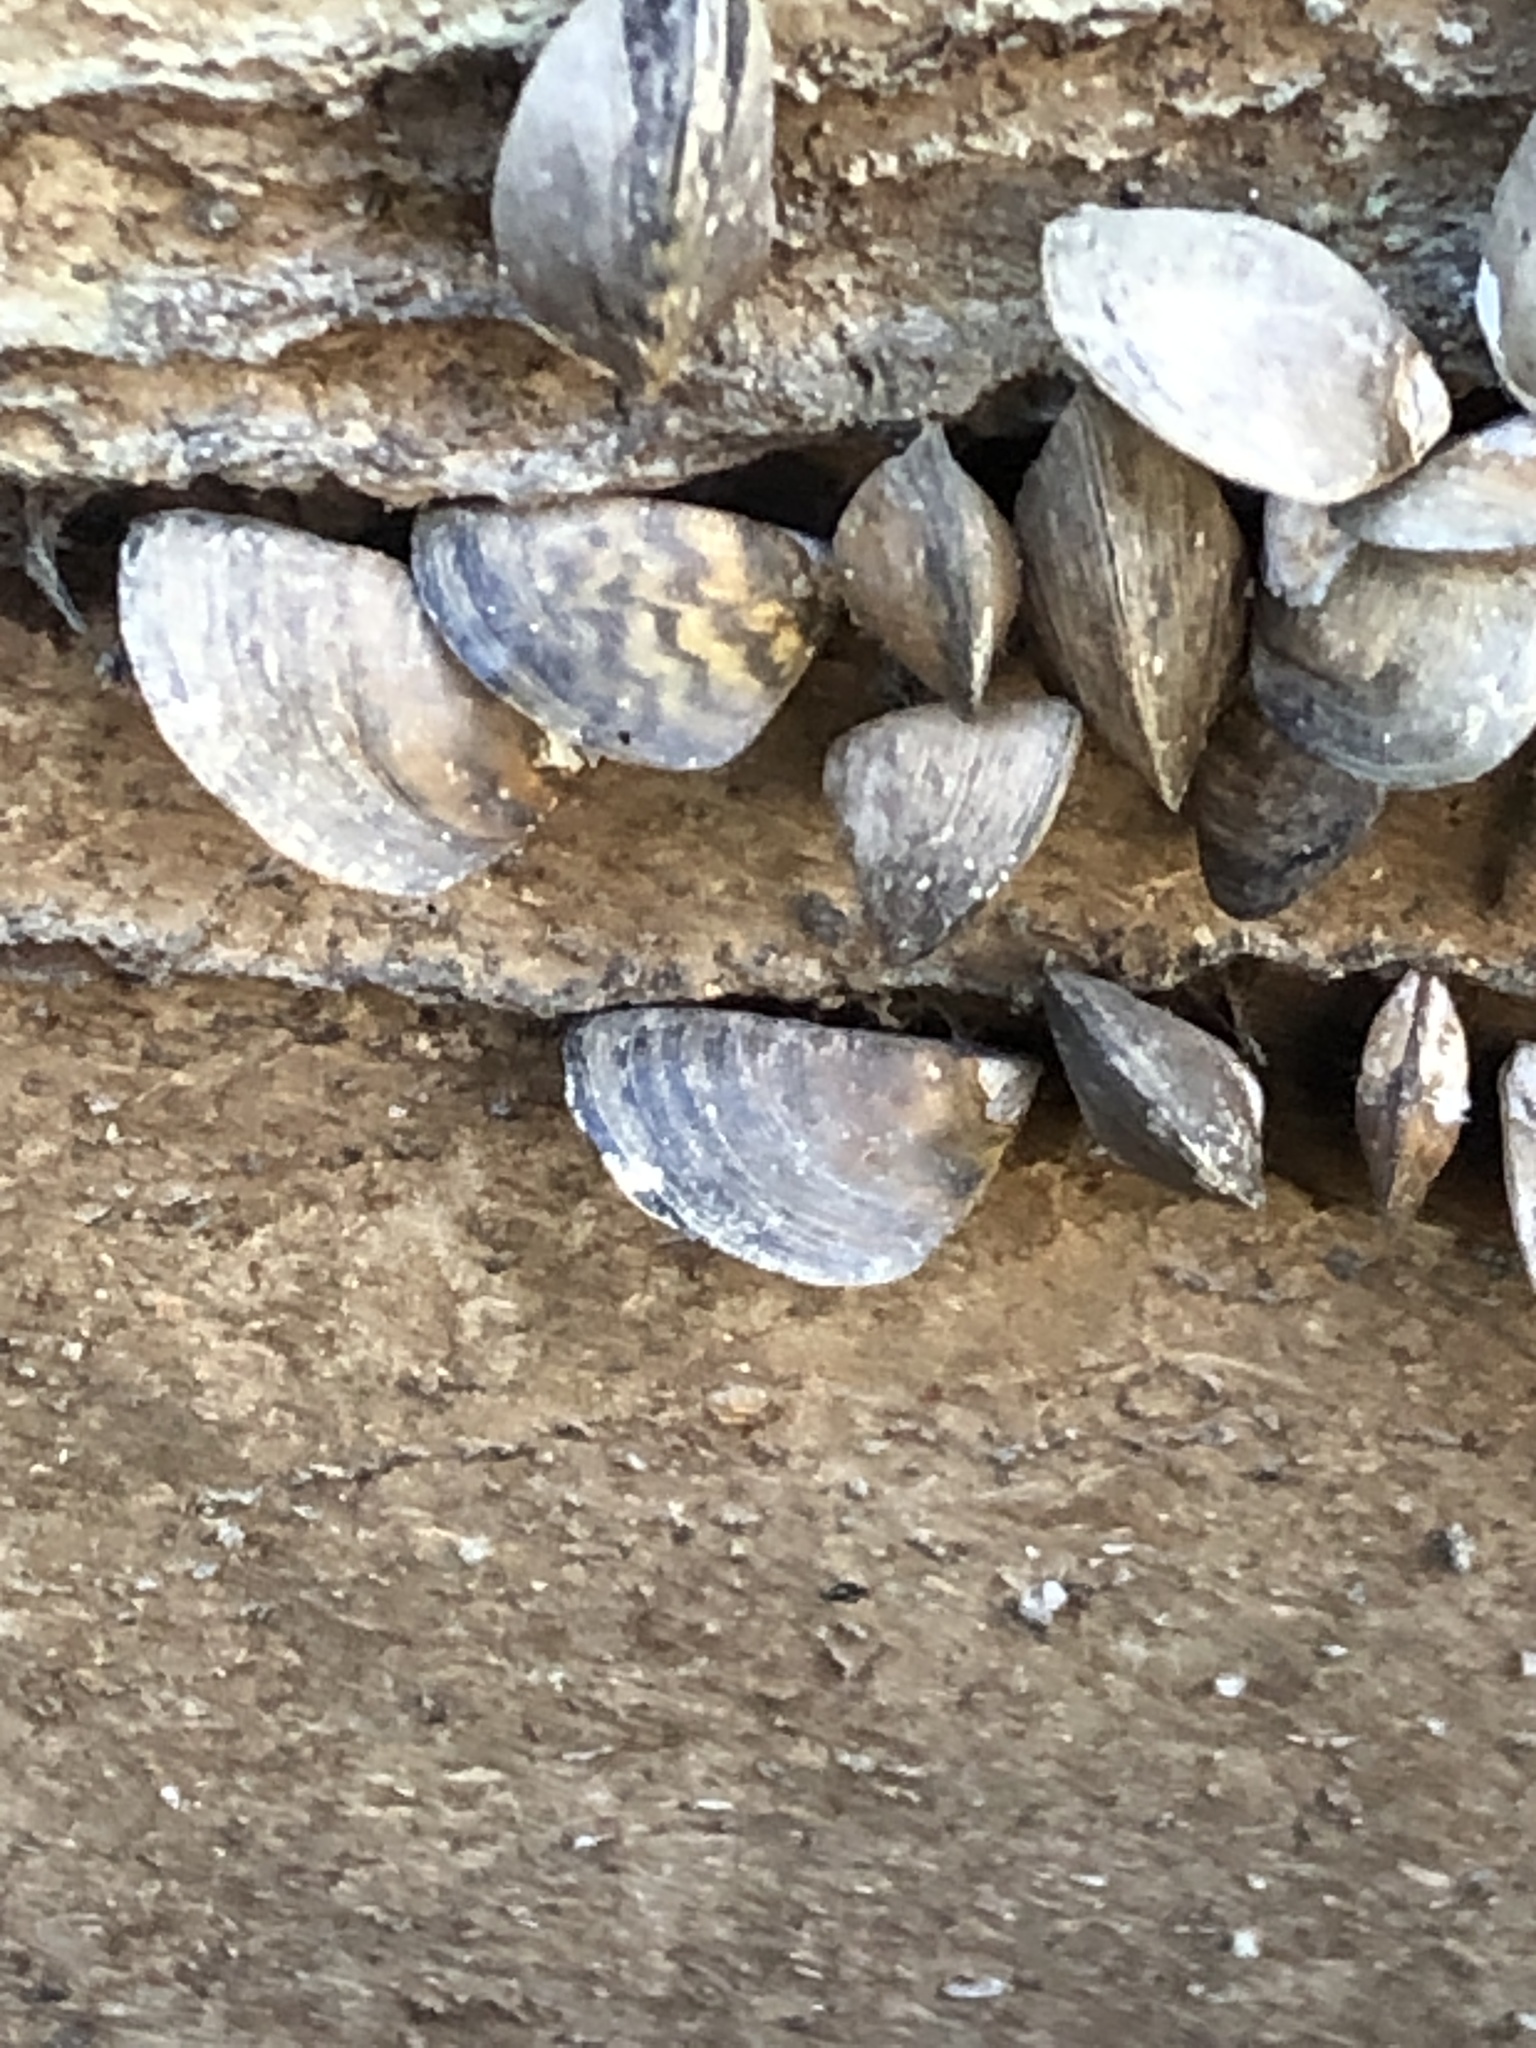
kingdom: Animalia
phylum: Mollusca
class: Bivalvia
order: Myida
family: Dreissenidae
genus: Dreissena
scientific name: Dreissena polymorpha
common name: Zebra mussel
